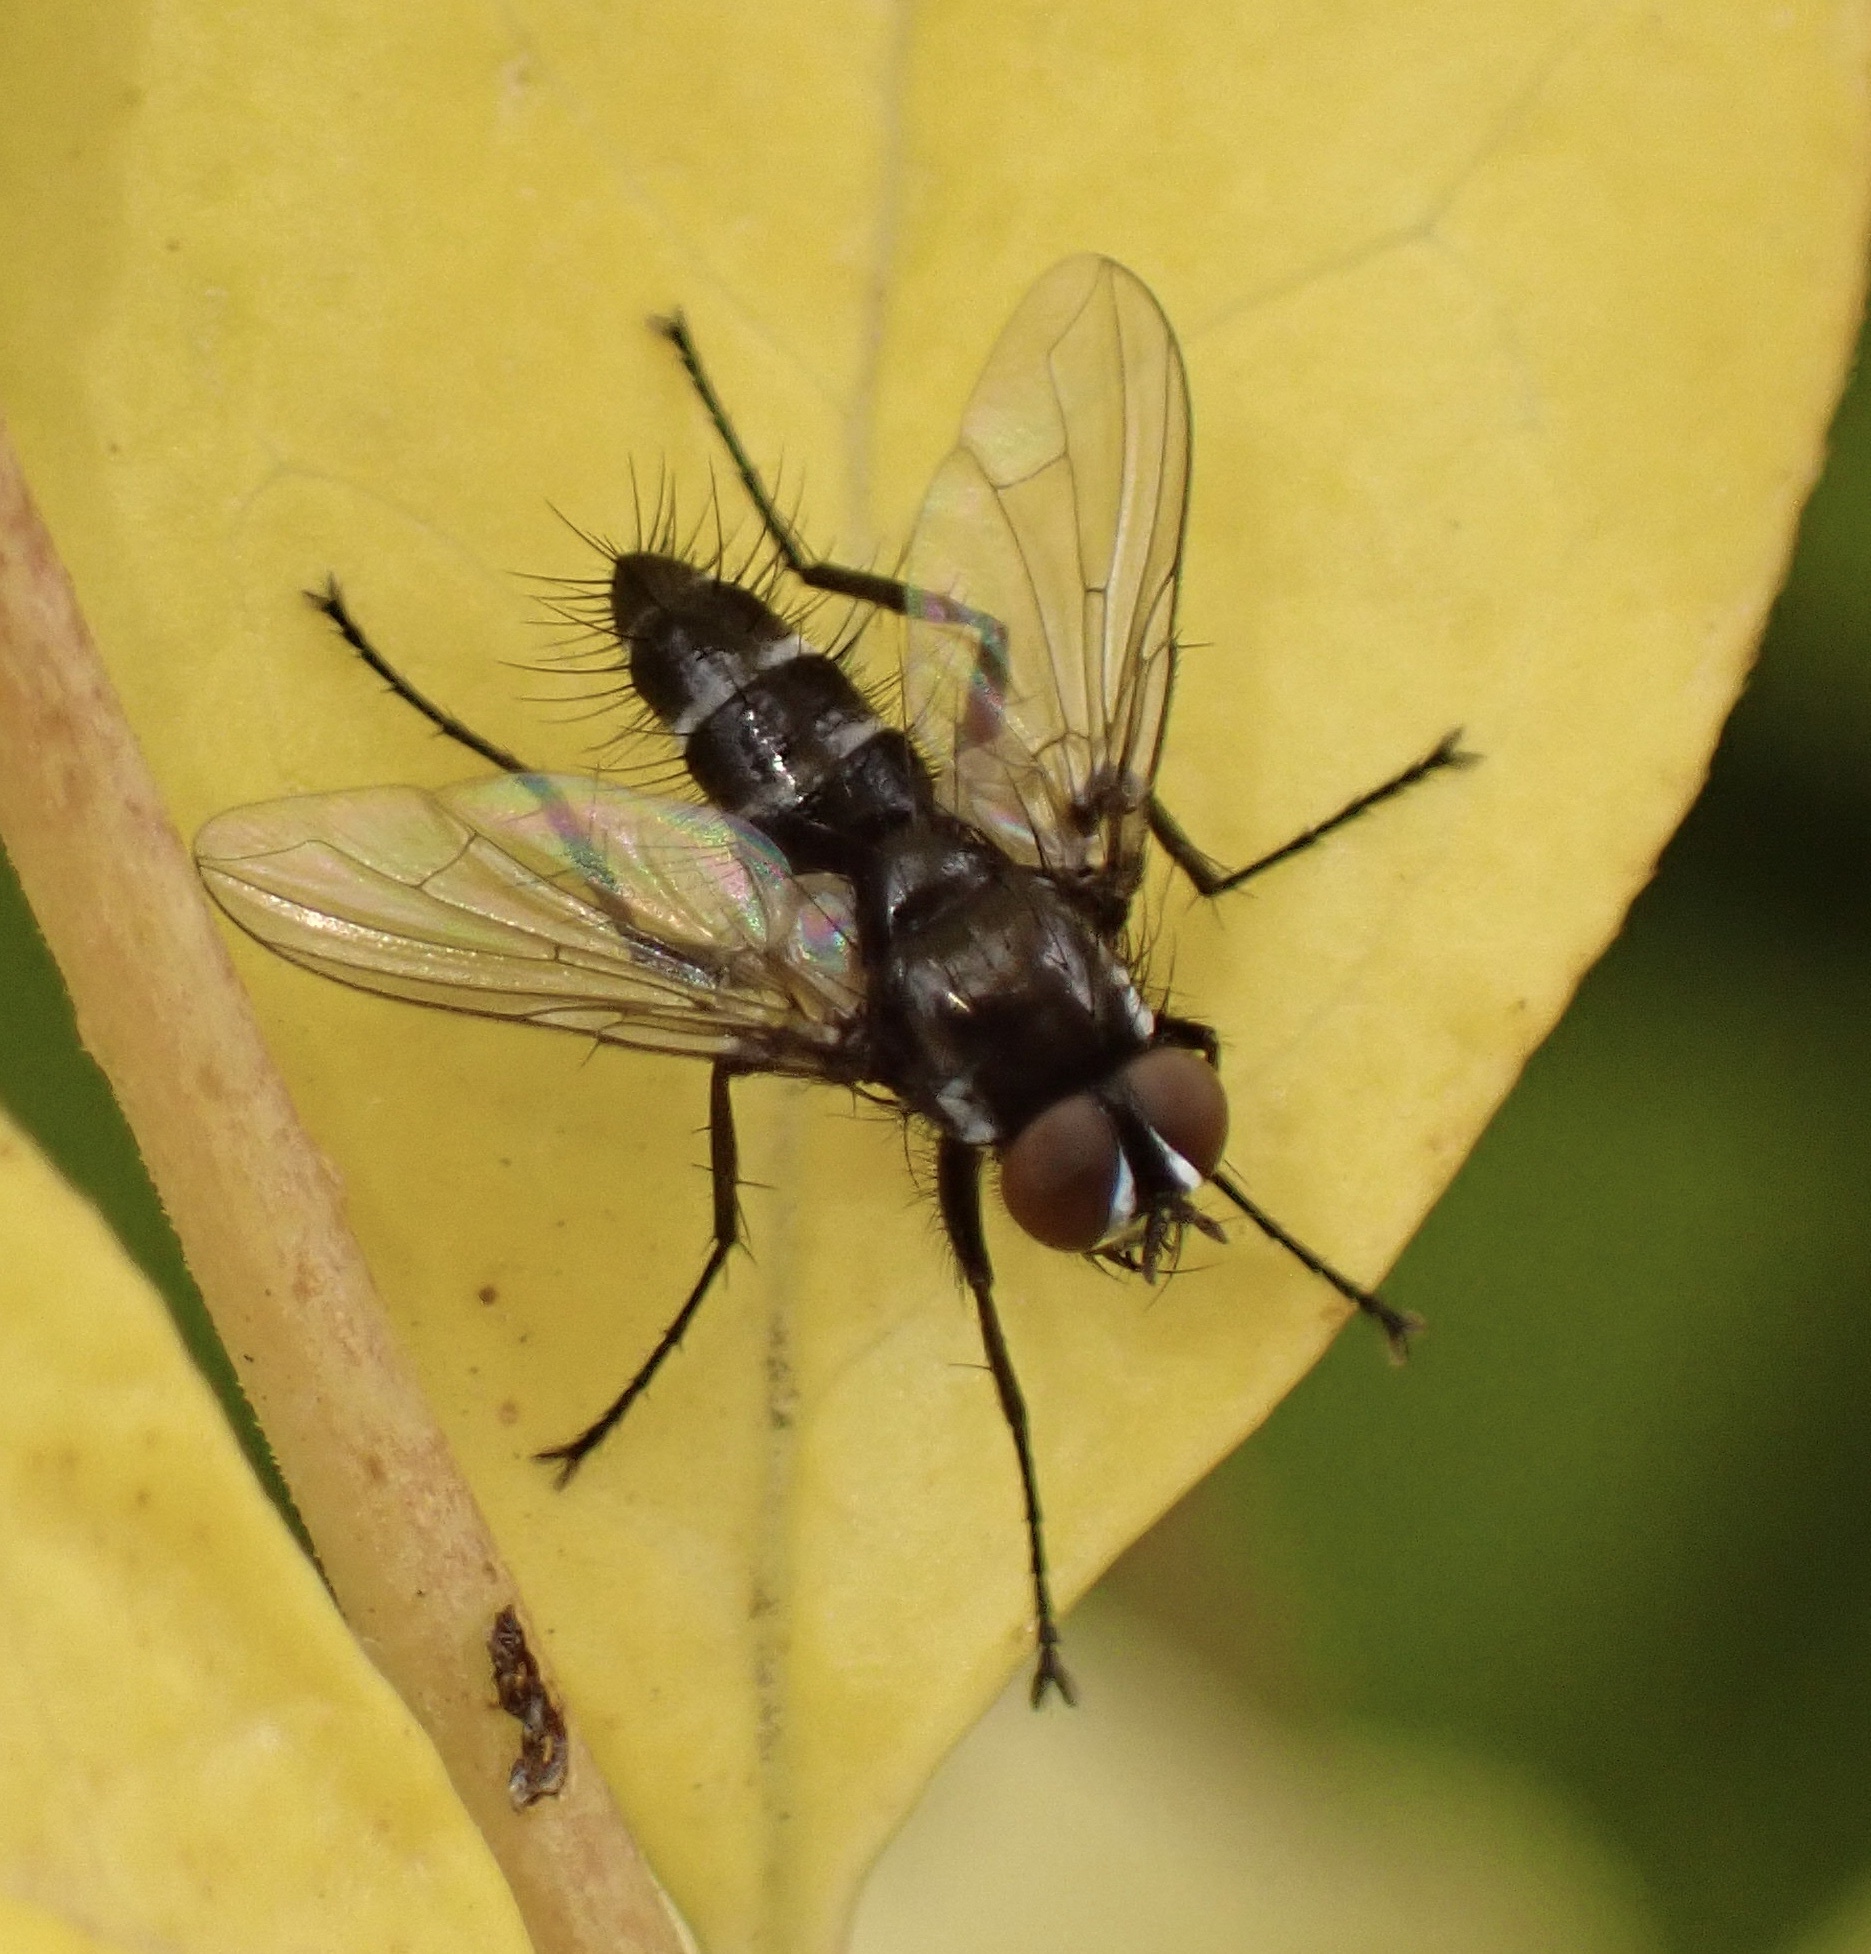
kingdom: Animalia
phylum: Arthropoda
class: Insecta
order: Diptera
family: Tachinidae
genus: Gastrolepta
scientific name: Gastrolepta anthracina
